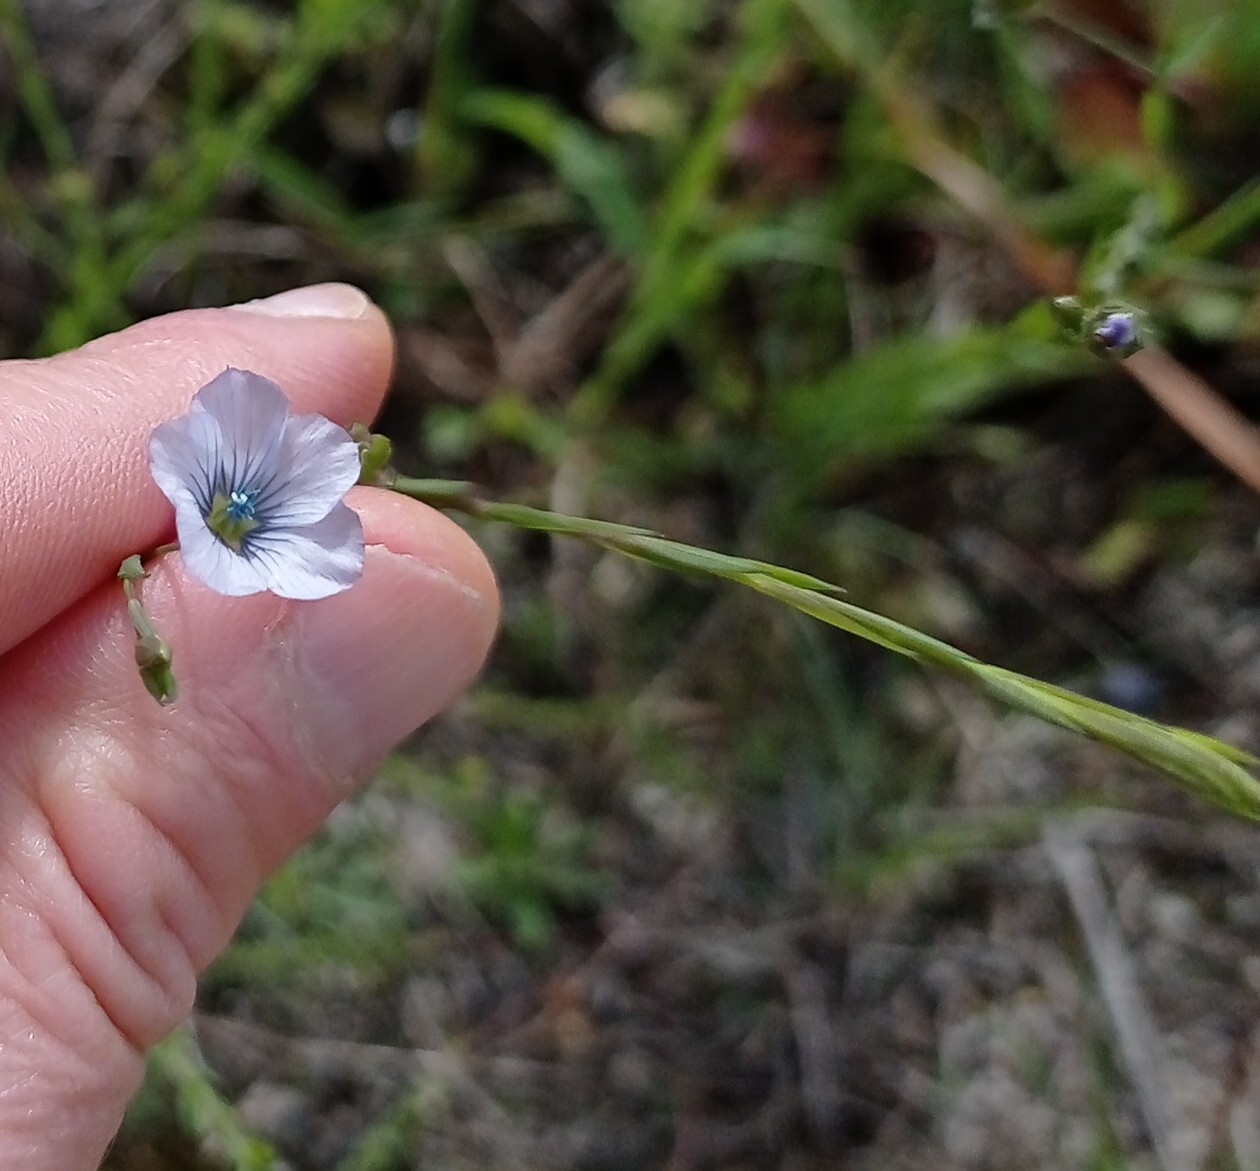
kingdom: Plantae
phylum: Tracheophyta
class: Magnoliopsida
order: Malpighiales
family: Linaceae
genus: Linum
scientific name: Linum bienne
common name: Pale flax
